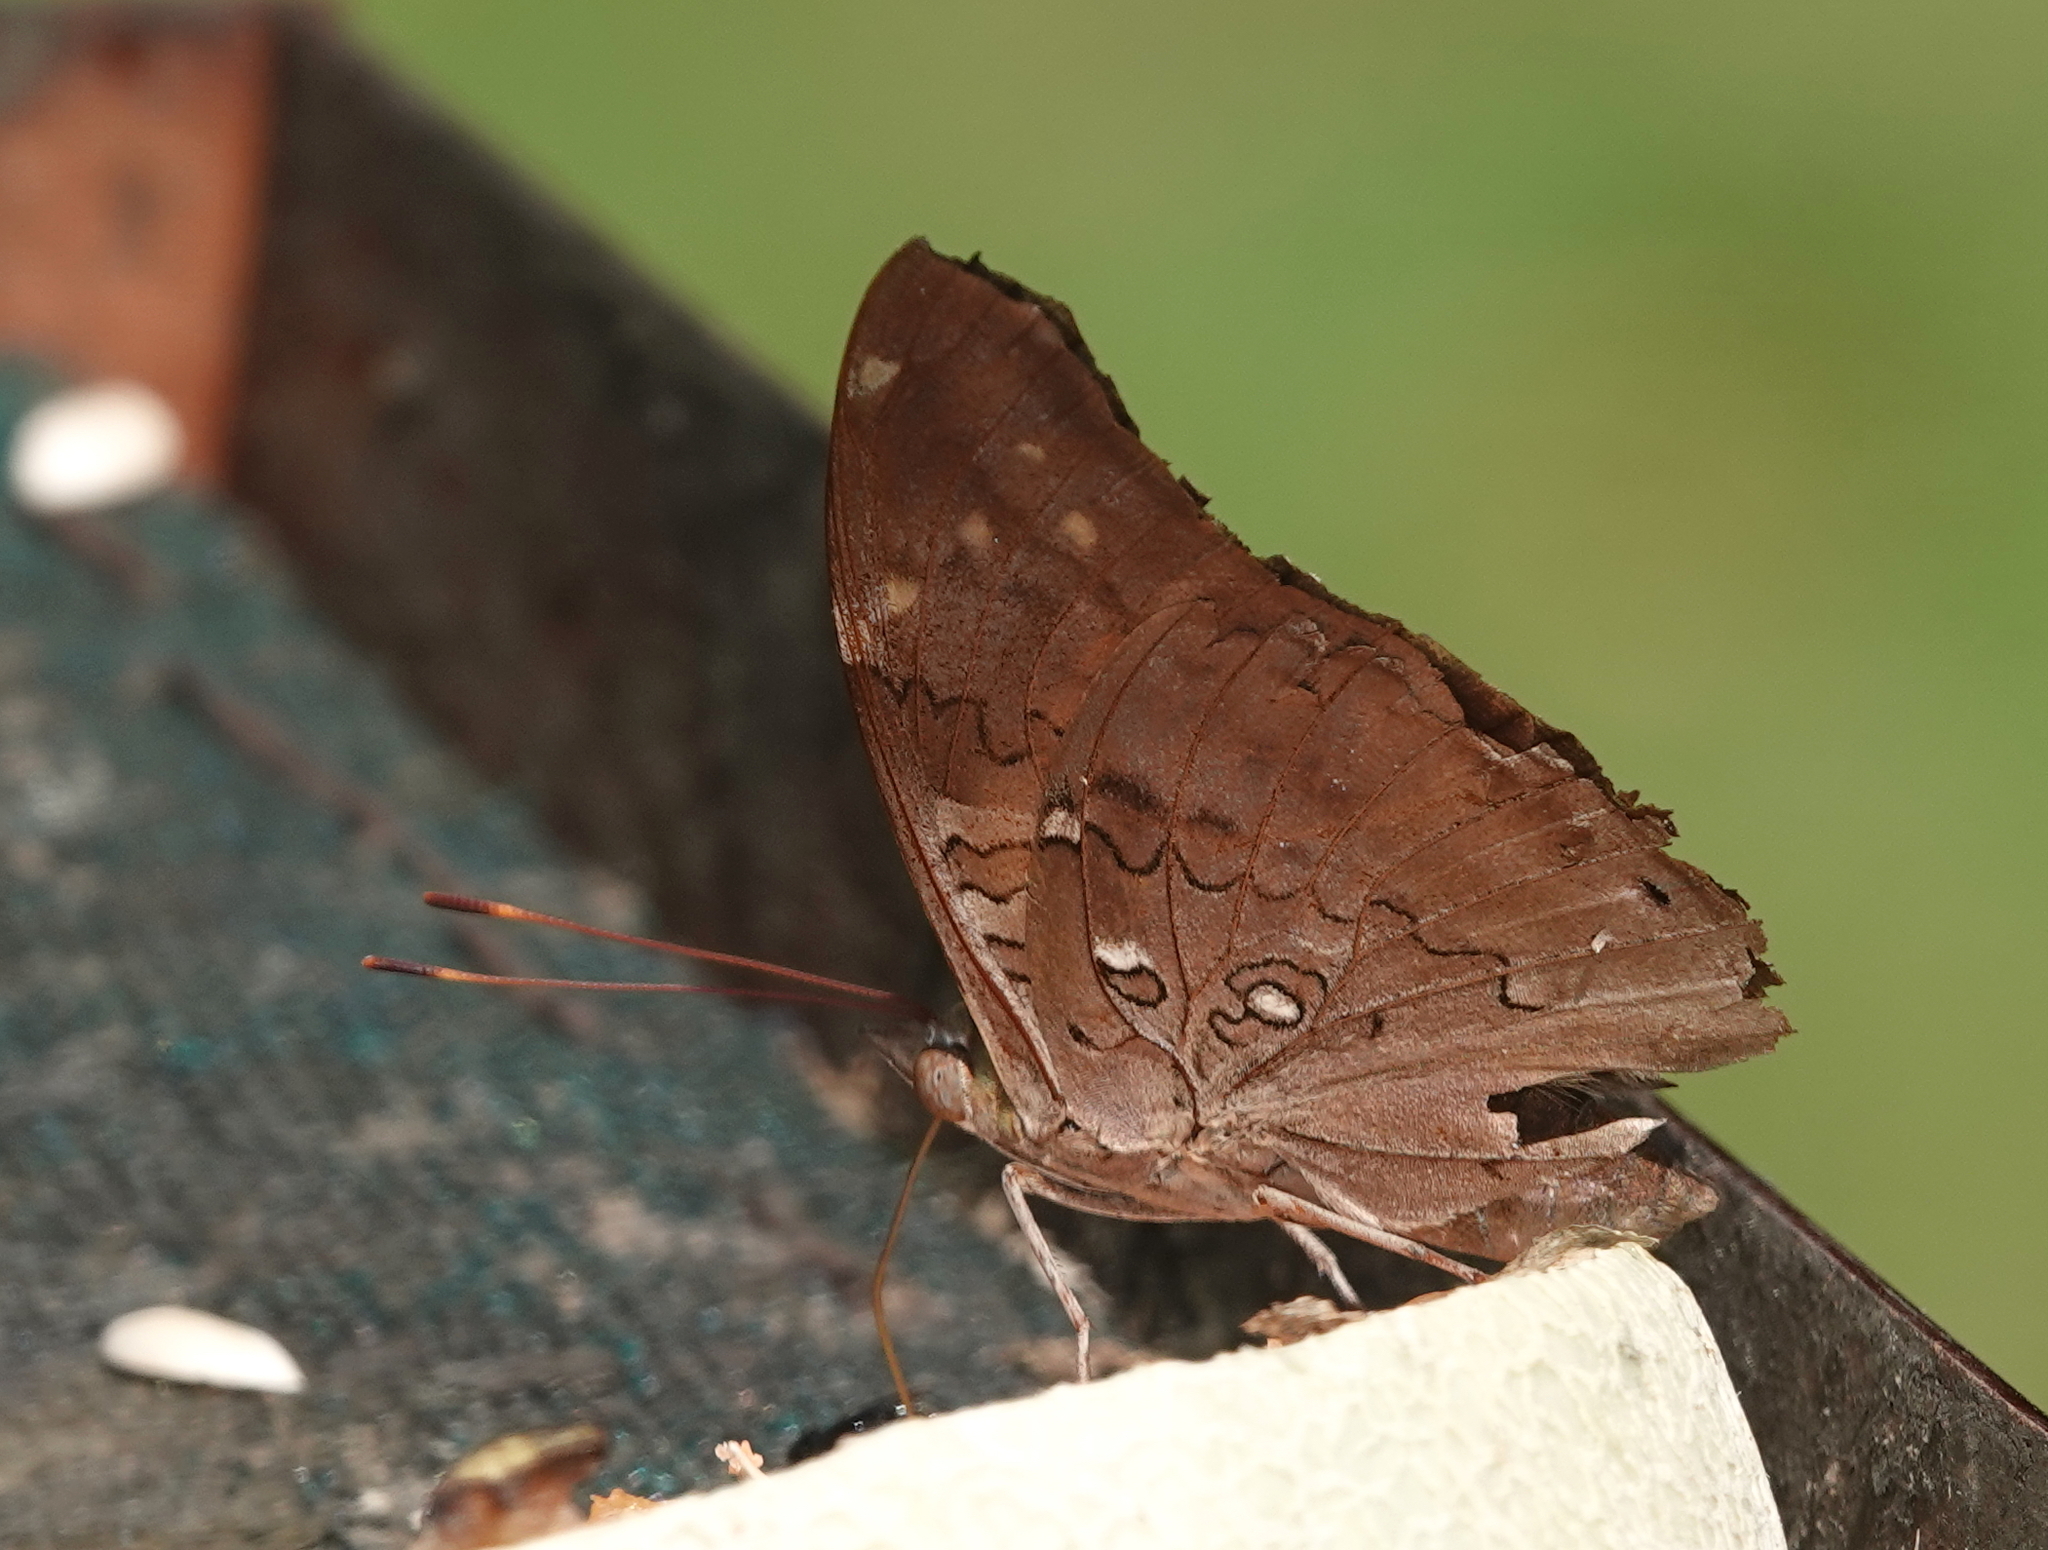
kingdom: Animalia
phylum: Arthropoda
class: Insecta
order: Lepidoptera
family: Nymphalidae
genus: Coea
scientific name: Coea acheronta
